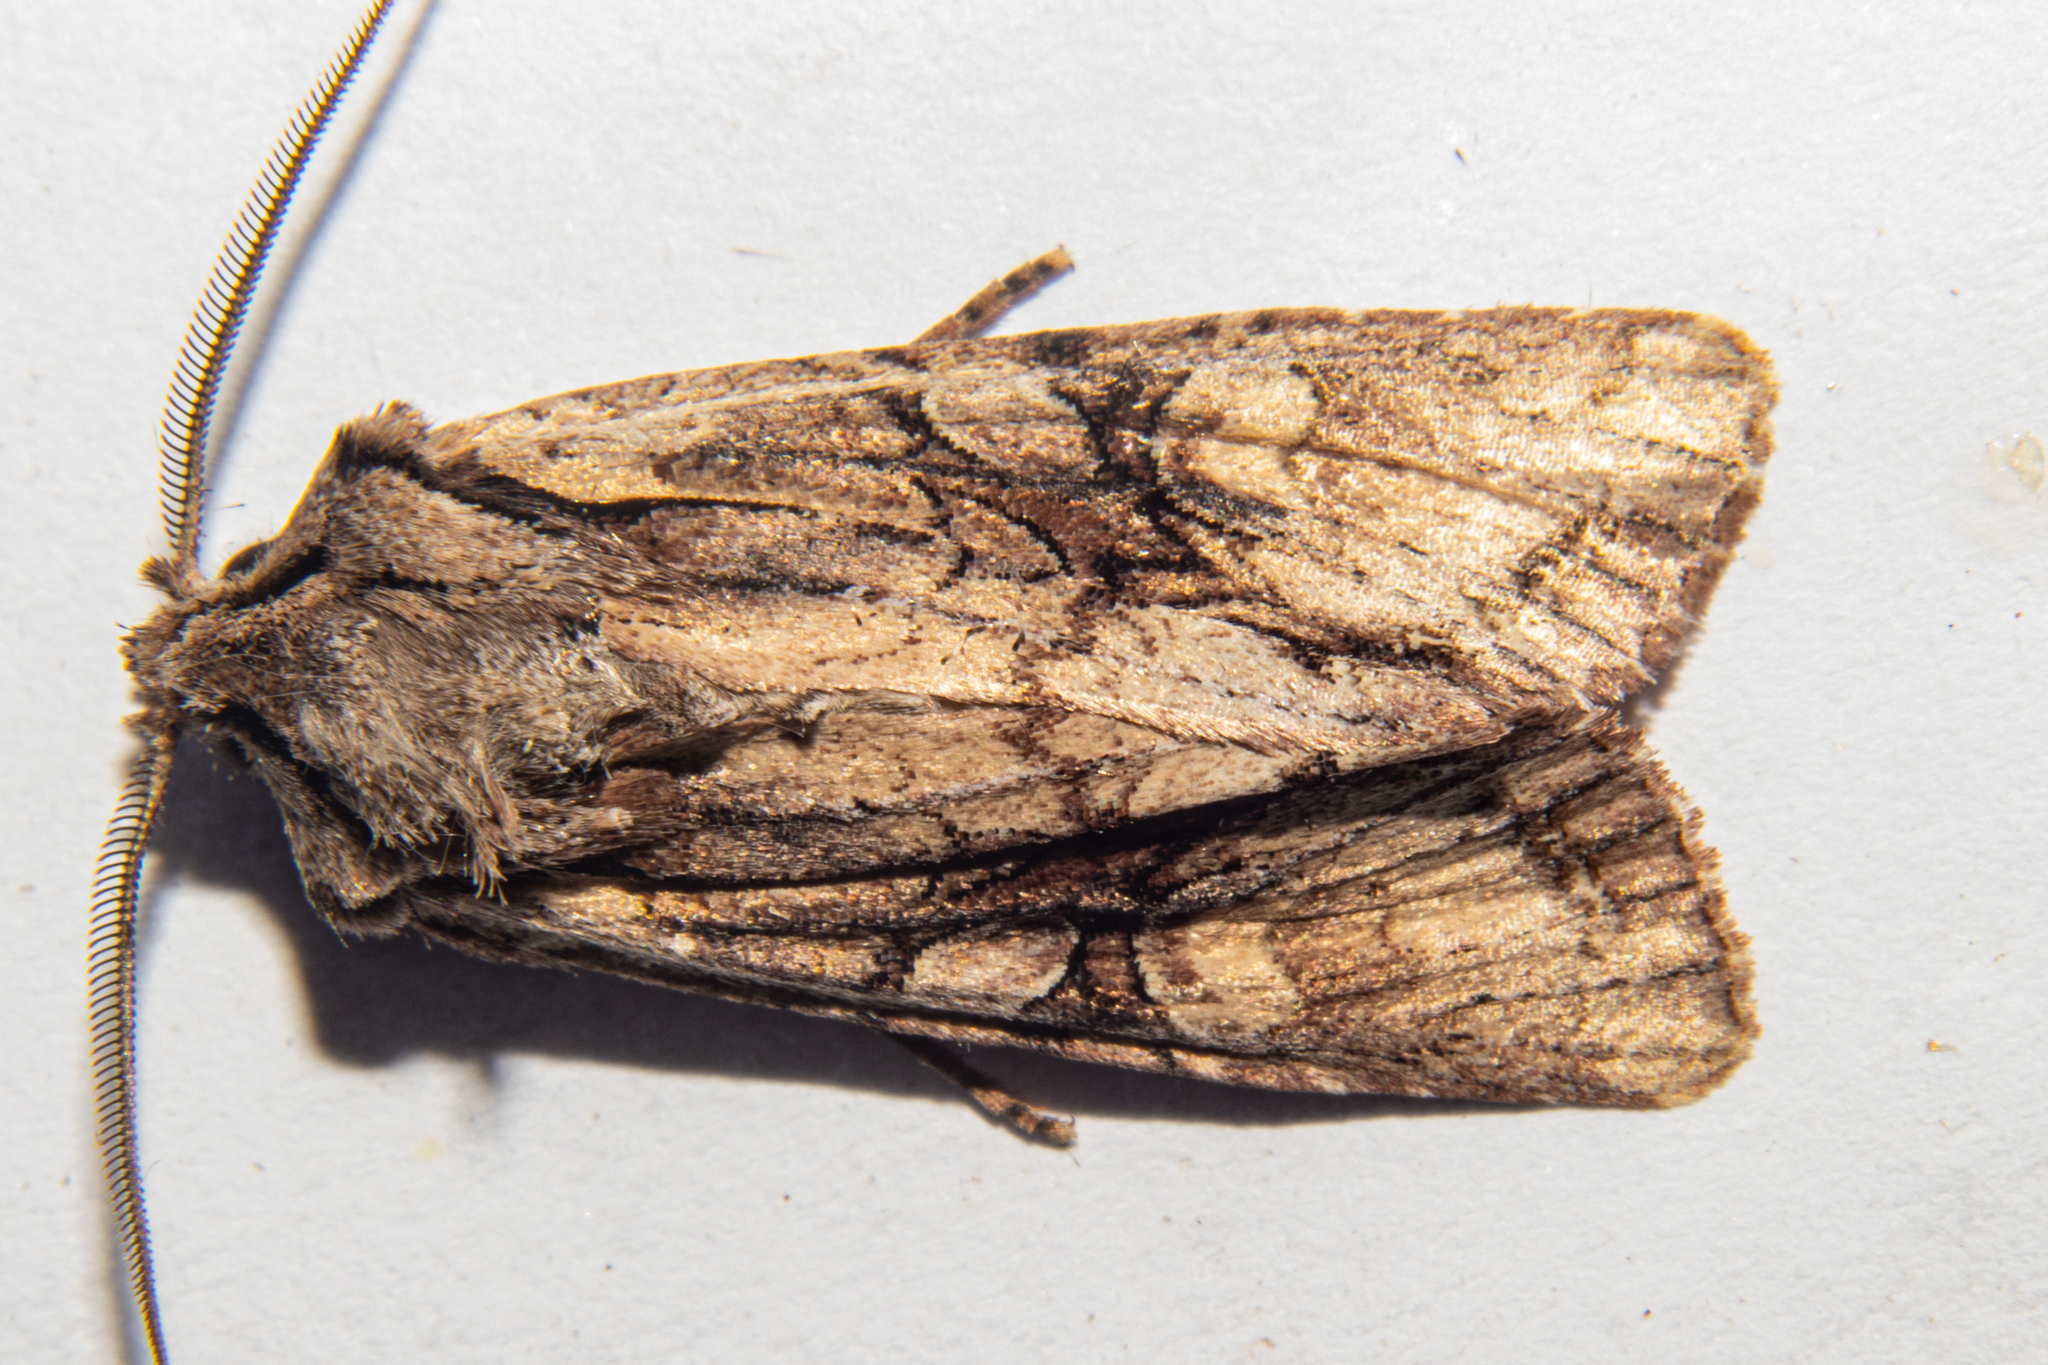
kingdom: Animalia
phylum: Arthropoda
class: Insecta
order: Lepidoptera
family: Noctuidae
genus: Ichneutica
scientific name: Ichneutica mutans
